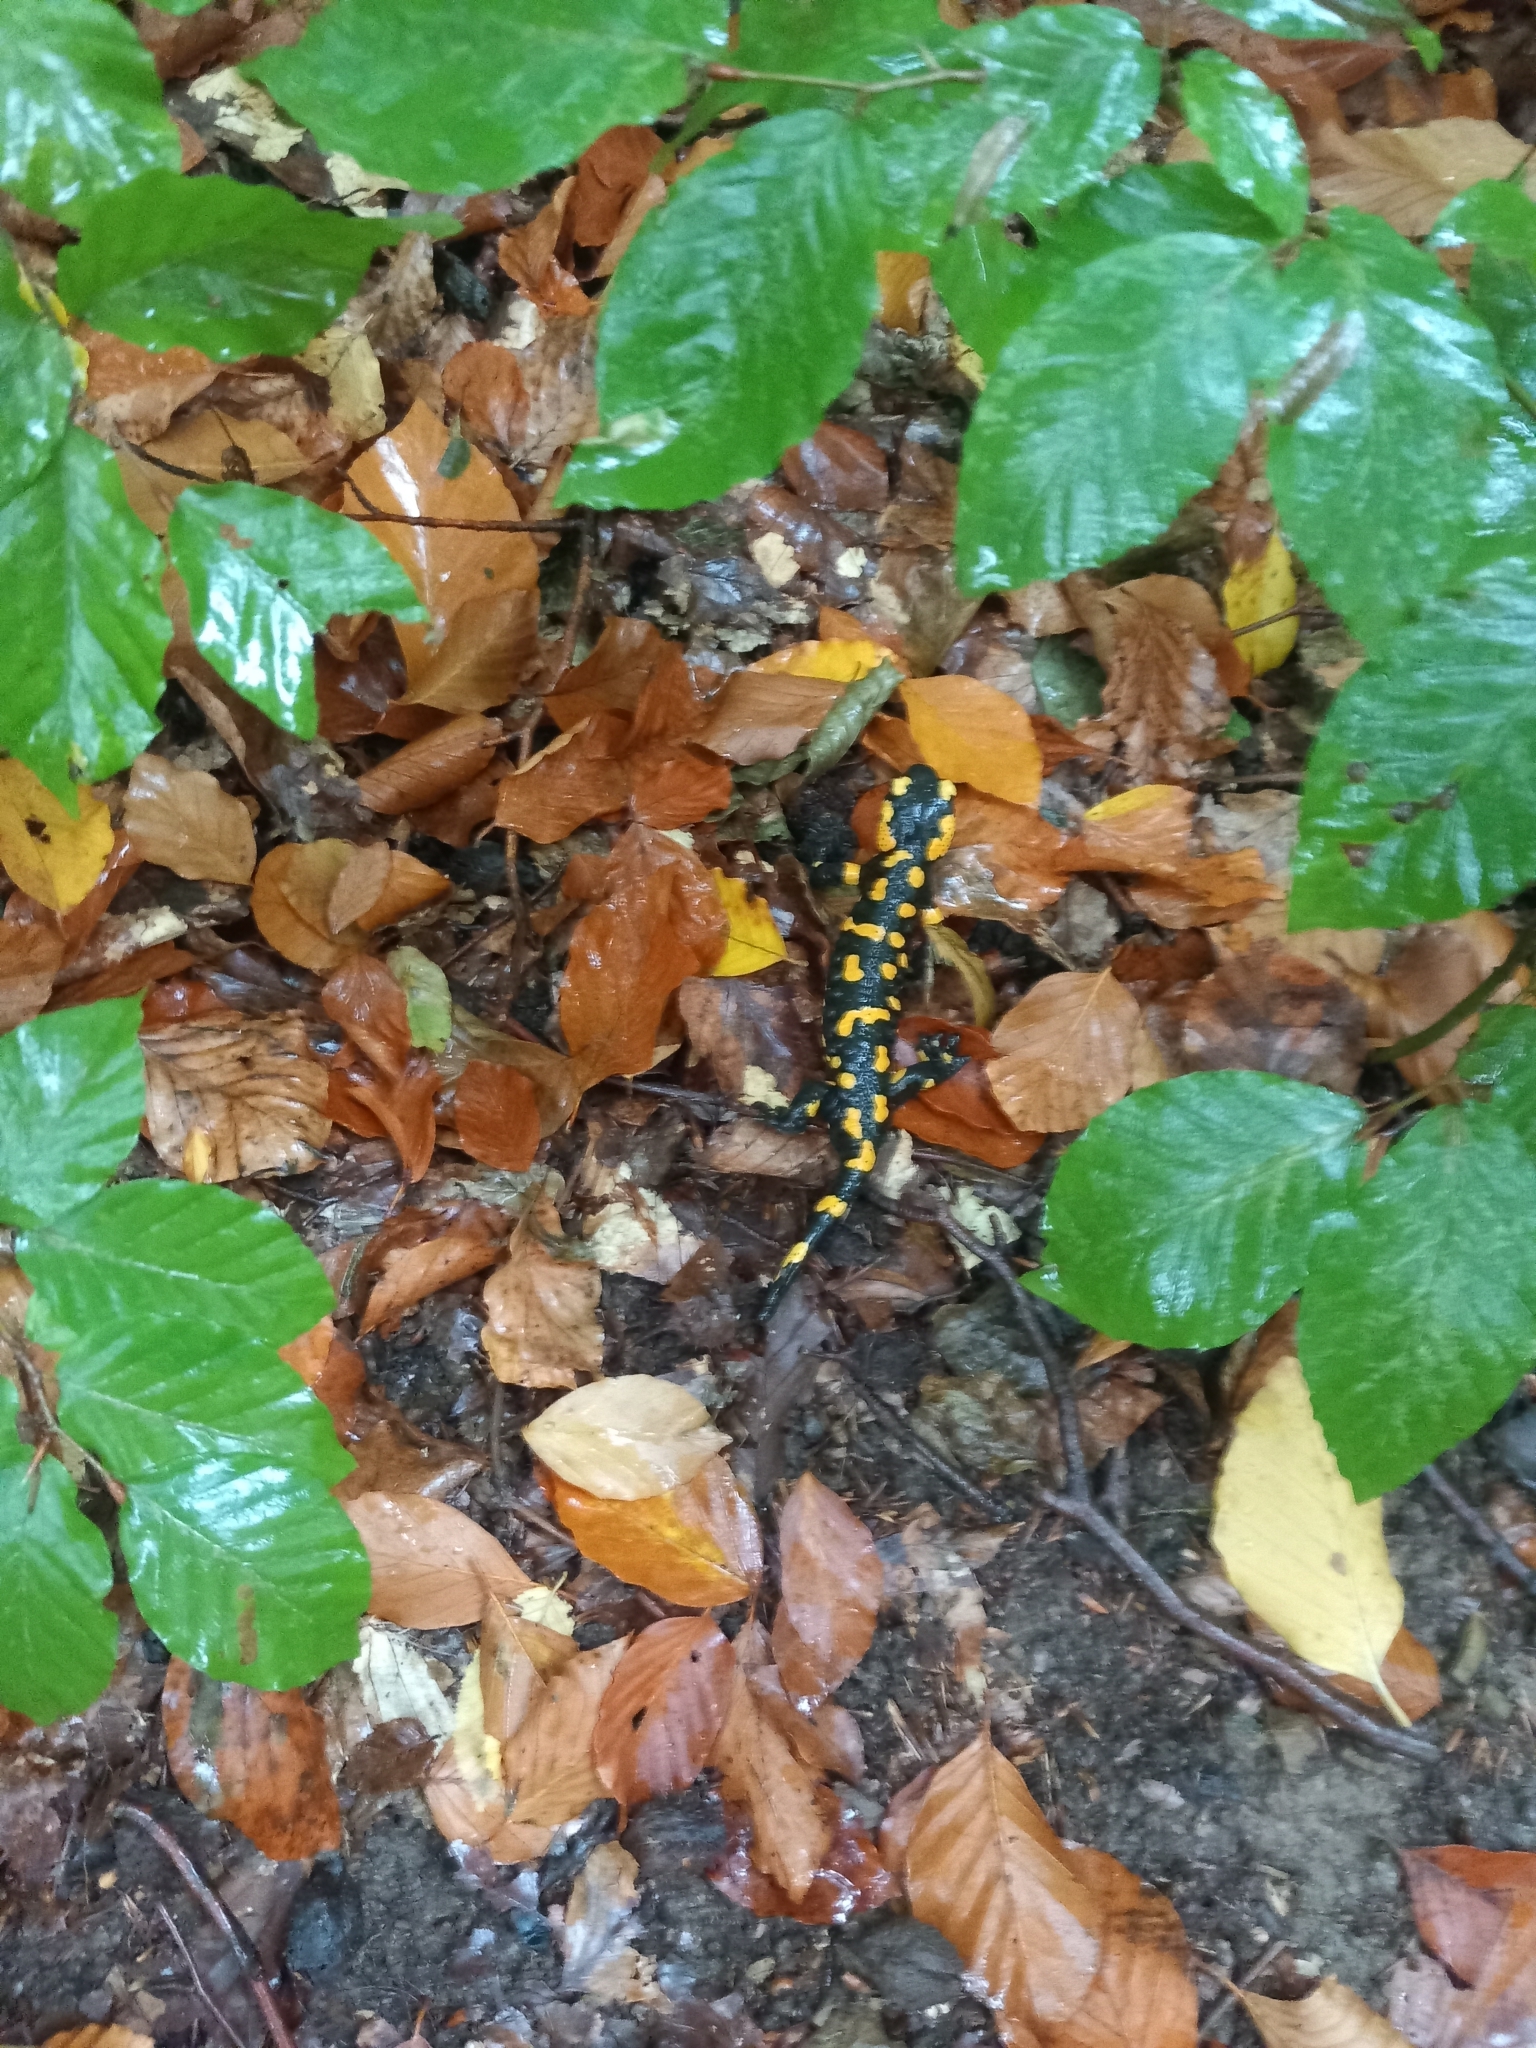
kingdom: Animalia
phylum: Chordata
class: Amphibia
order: Caudata
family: Salamandridae
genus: Salamandra
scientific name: Salamandra salamandra
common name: Fire salamander
